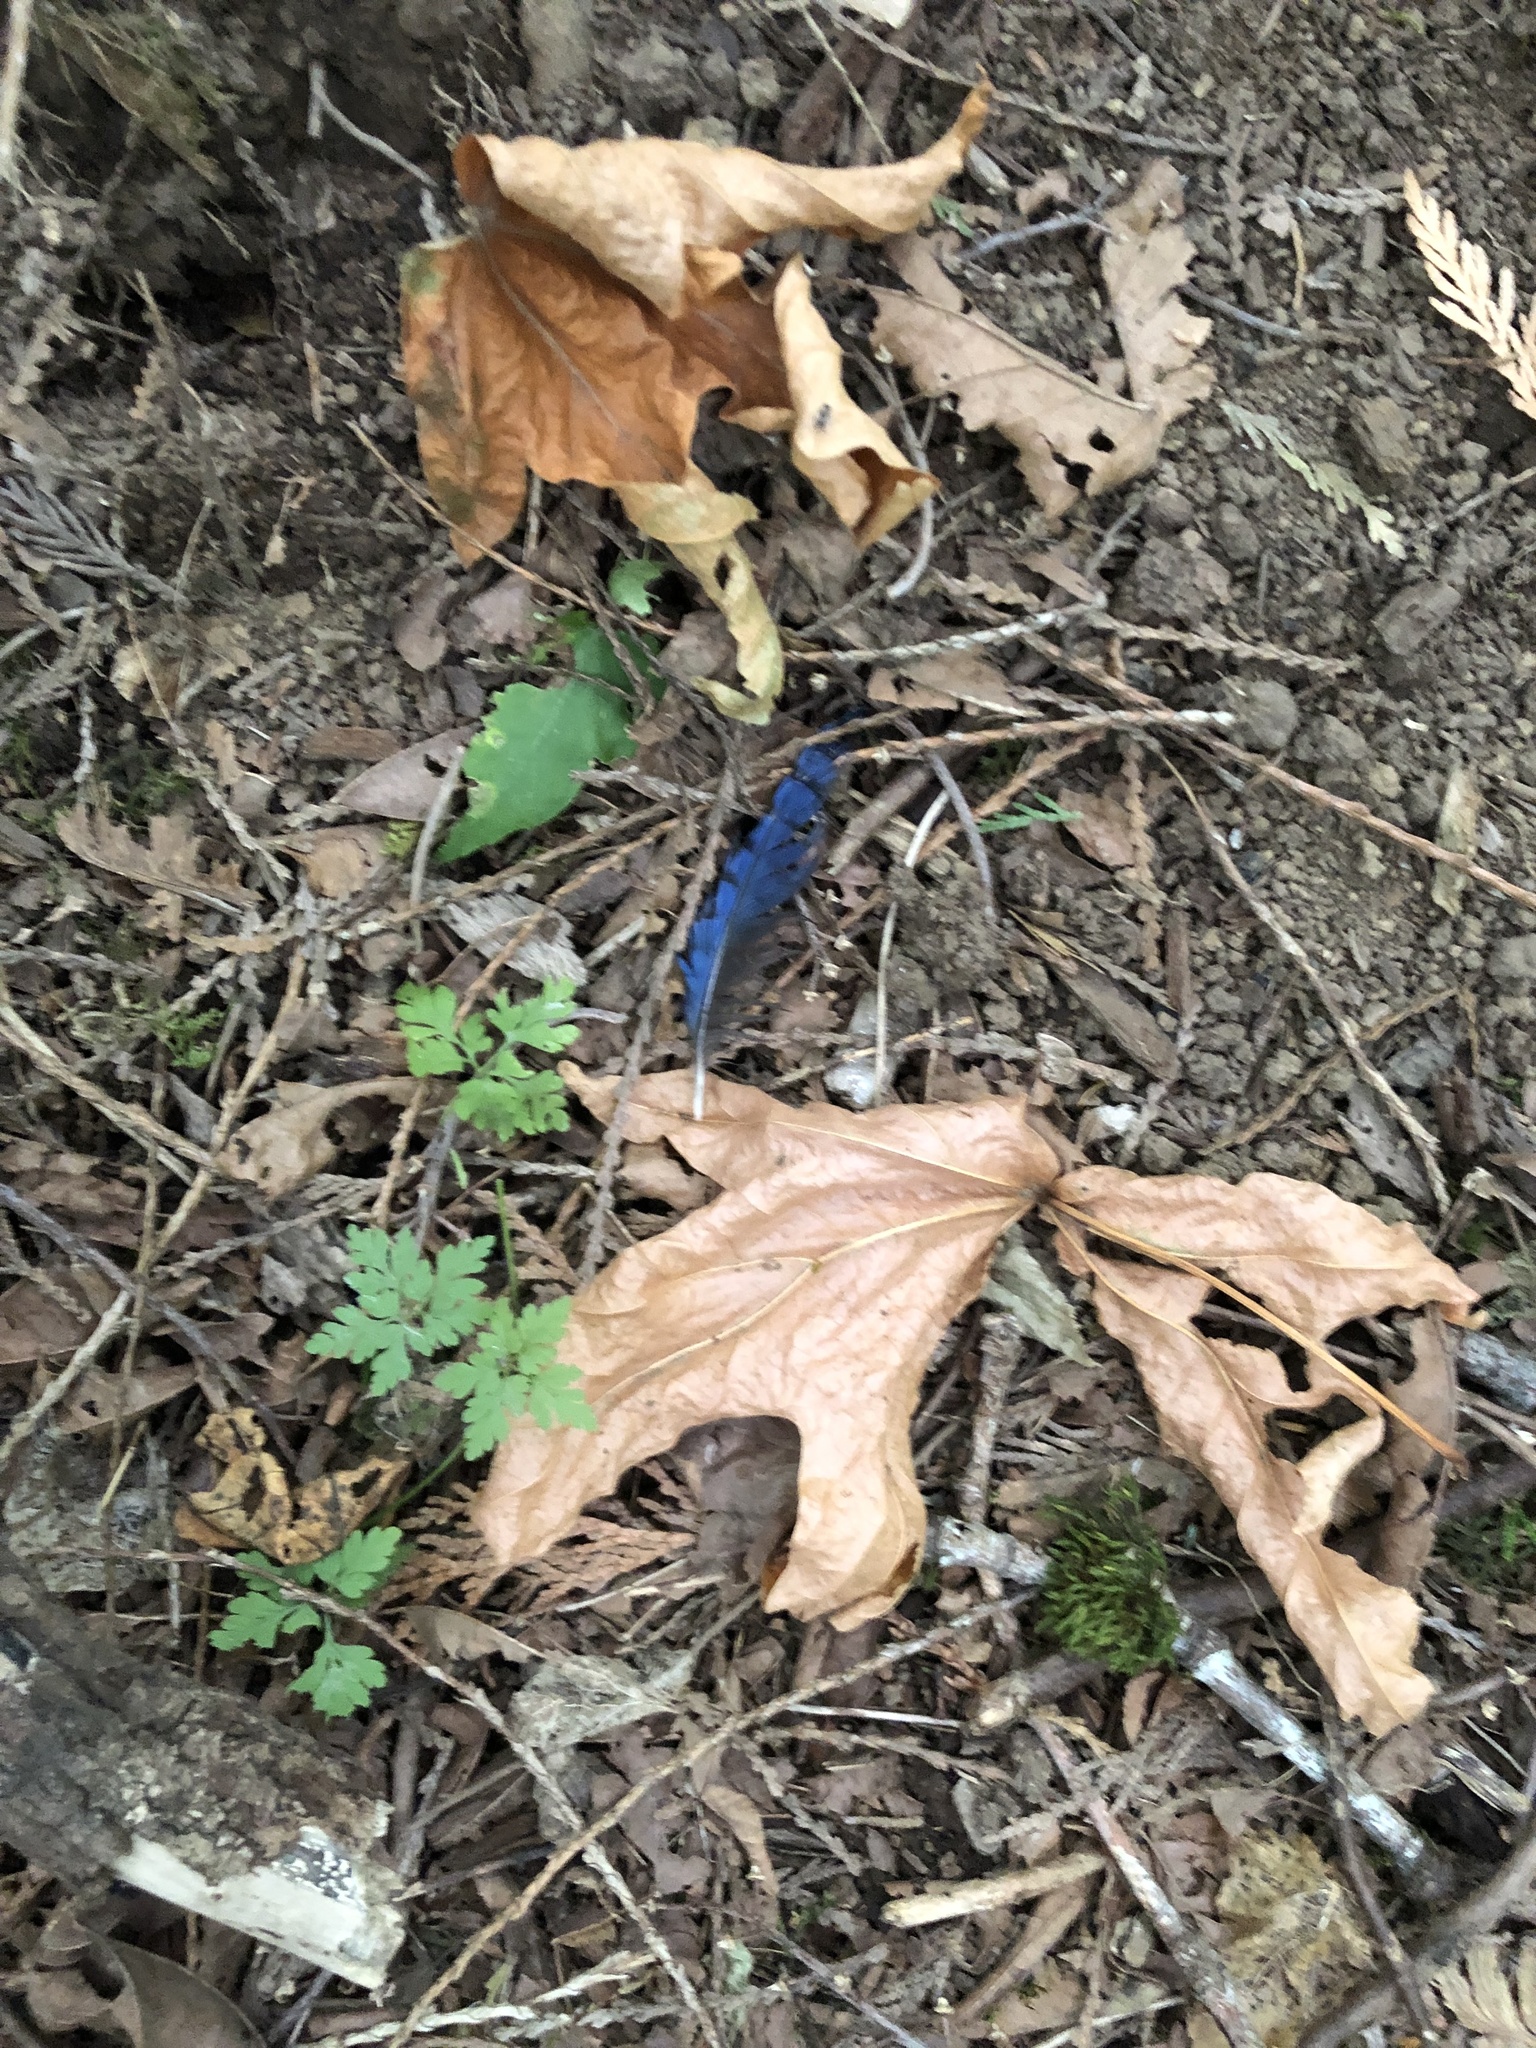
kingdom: Animalia
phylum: Chordata
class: Aves
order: Passeriformes
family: Corvidae
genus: Cyanocitta
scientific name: Cyanocitta stelleri
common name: Steller's jay
